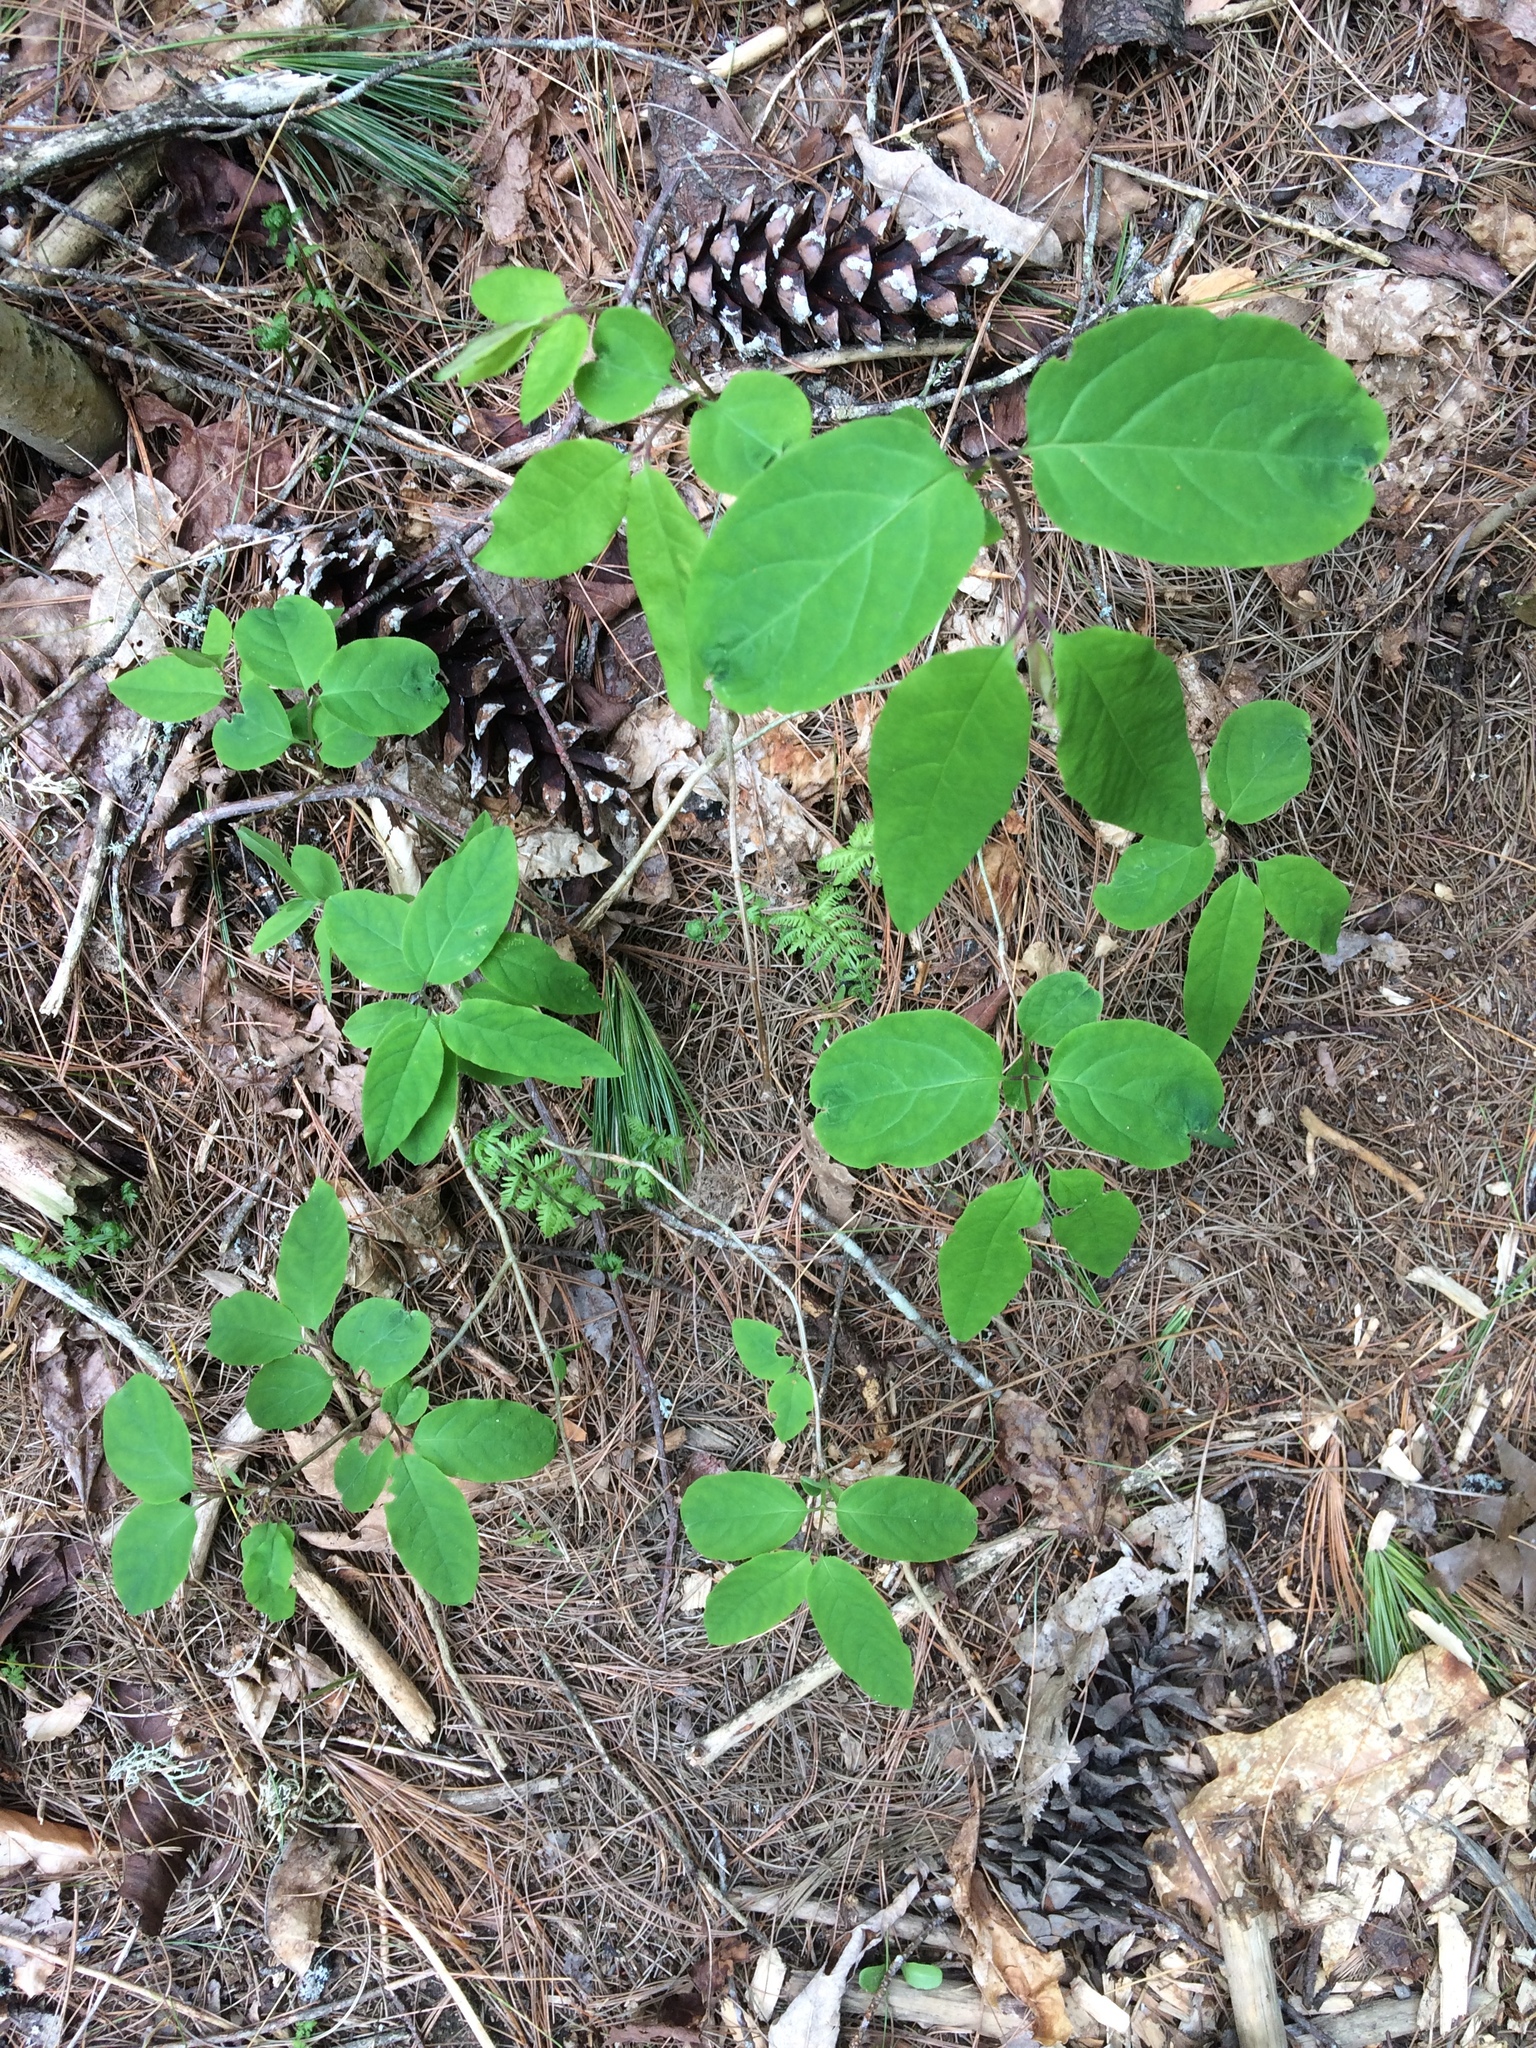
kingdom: Plantae
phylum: Tracheophyta
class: Magnoliopsida
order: Dipsacales
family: Caprifoliaceae
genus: Lonicera
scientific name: Lonicera canadensis
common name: American fly-honeysuckle
